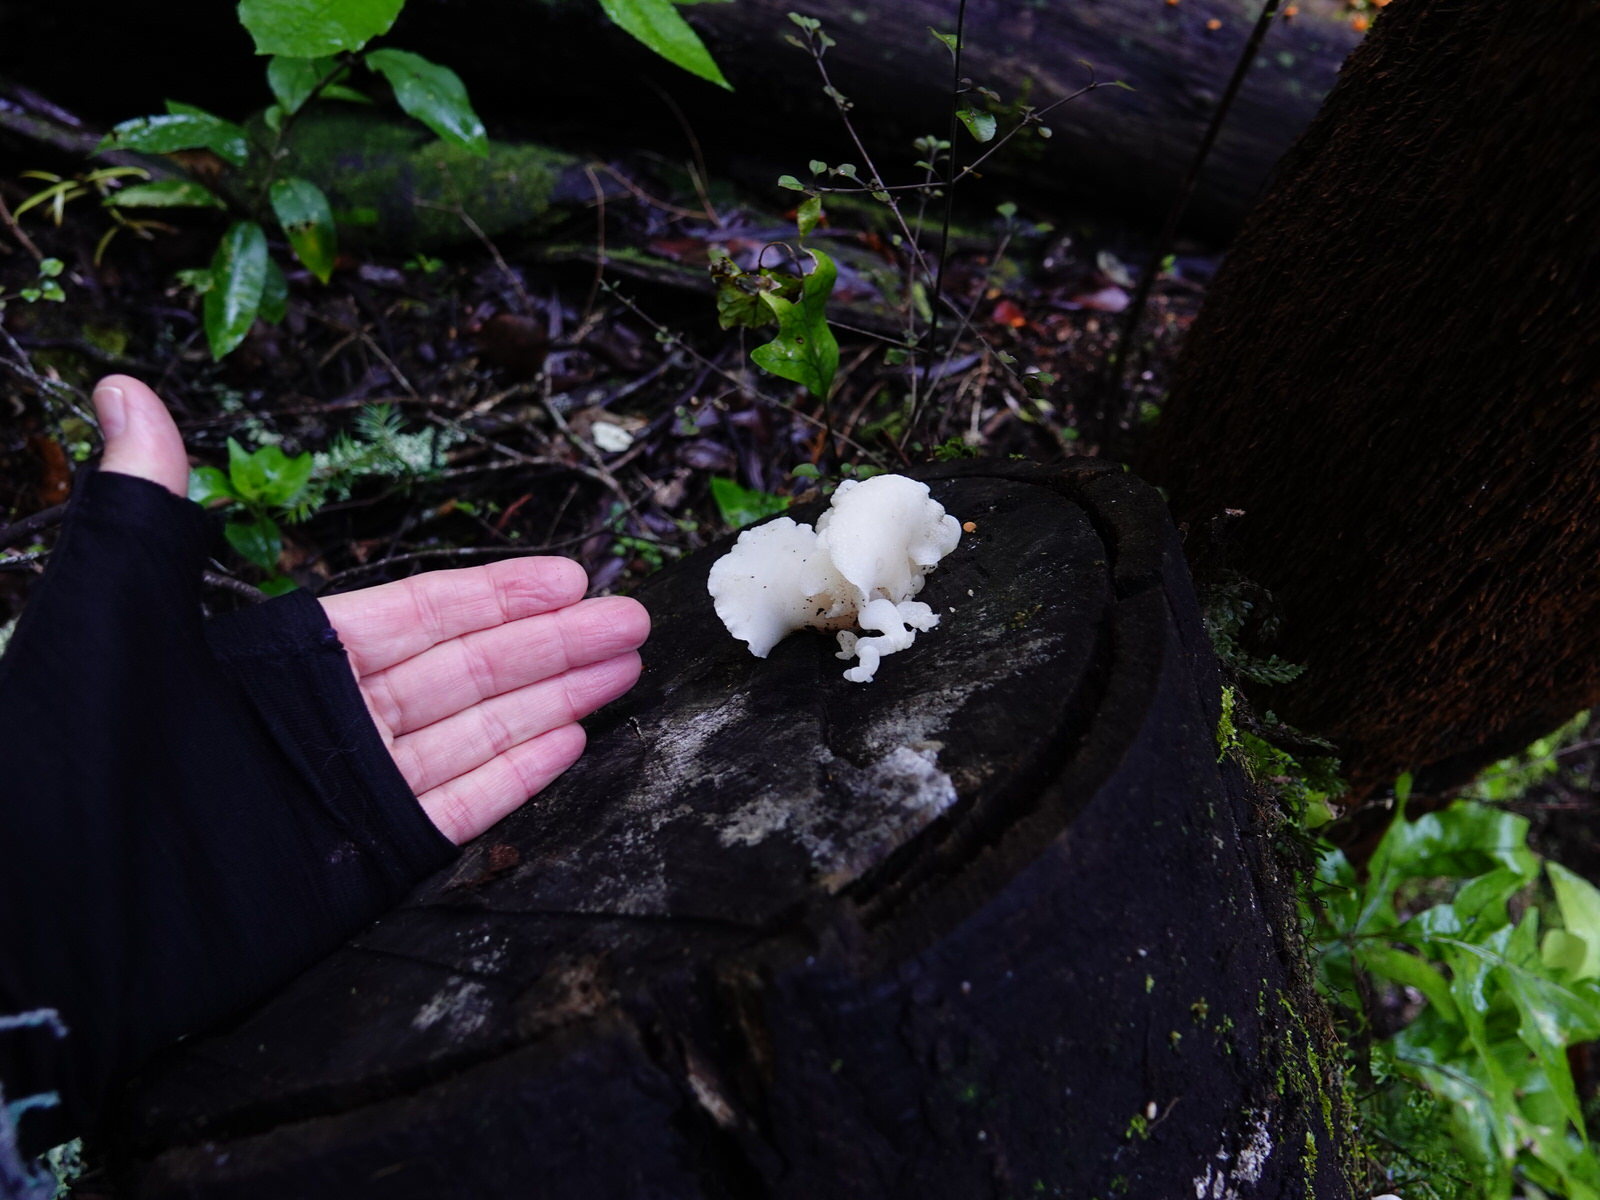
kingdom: Fungi
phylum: Basidiomycota
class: Agaricomycetes
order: Agaricales
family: Mycenaceae
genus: Favolaschia
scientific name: Favolaschia pustulosa
